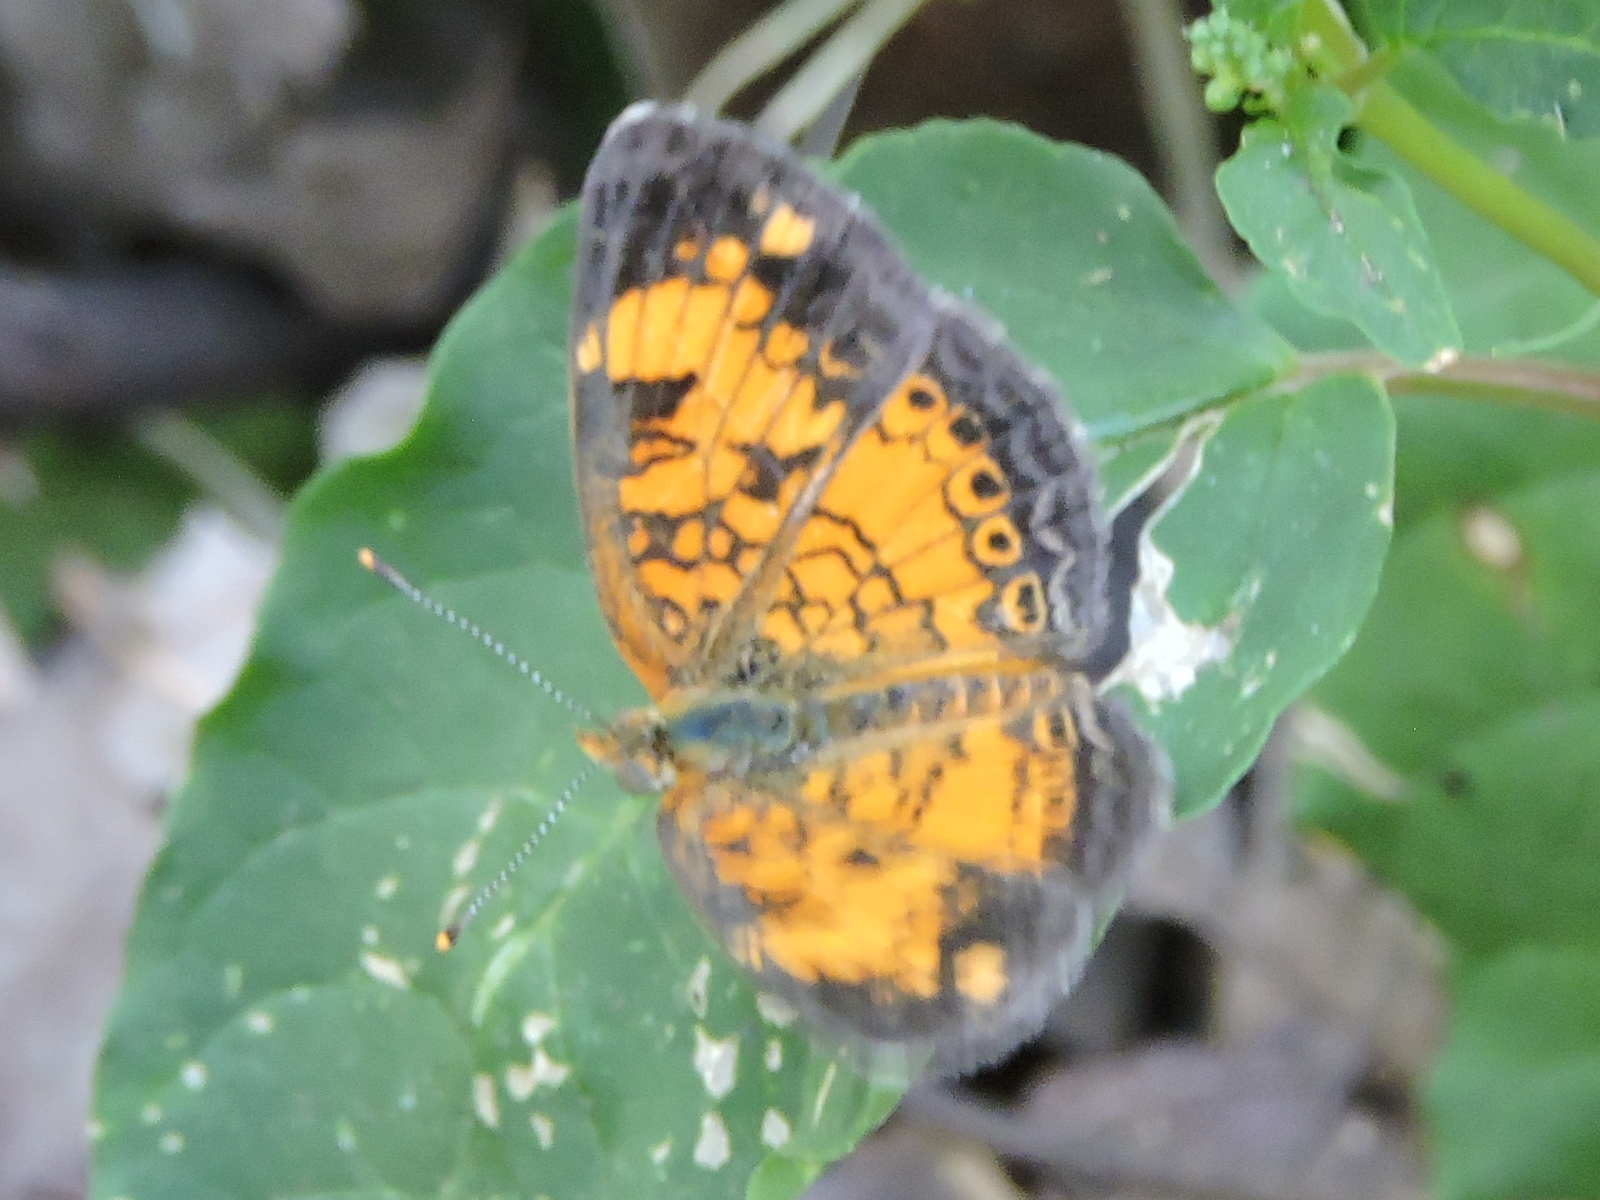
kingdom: Animalia
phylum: Arthropoda
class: Insecta
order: Lepidoptera
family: Nymphalidae
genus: Phyciodes
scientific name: Phyciodes tharos
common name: Pearl crescent
